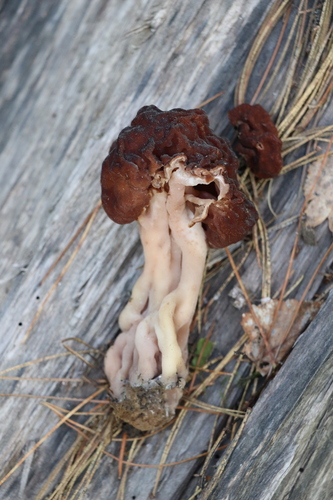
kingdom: Fungi
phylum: Ascomycota
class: Pezizomycetes
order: Pezizales
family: Discinaceae
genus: Gyromitra
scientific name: Gyromitra esculenta
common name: False morel
